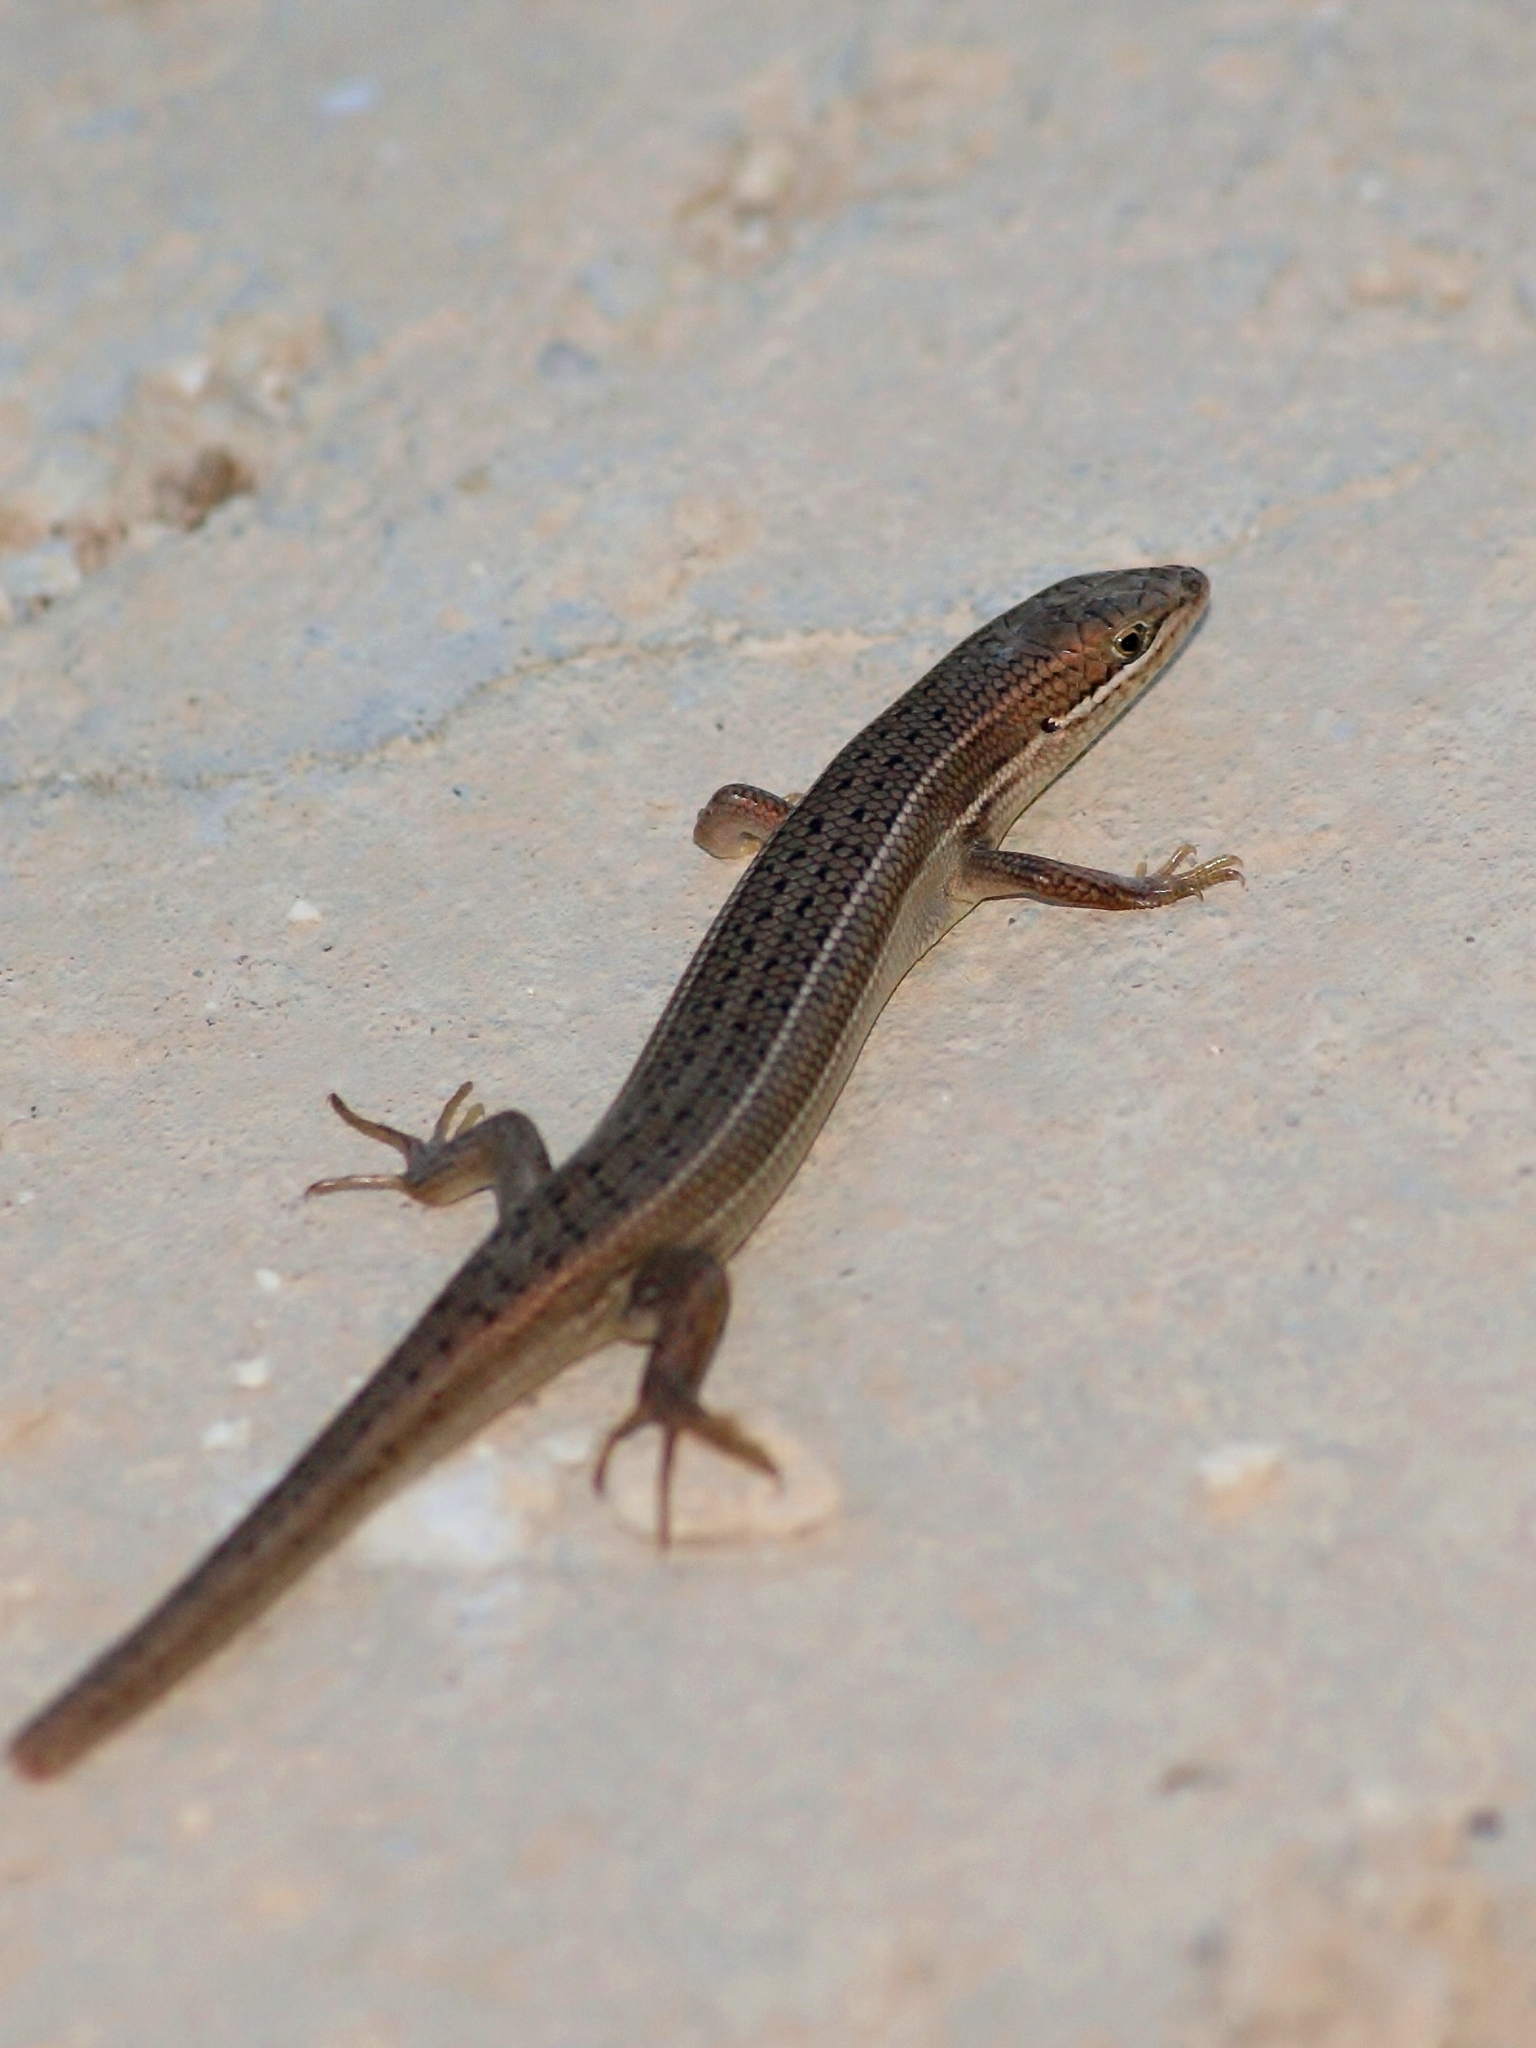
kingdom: Animalia
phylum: Chordata
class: Squamata
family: Scincidae
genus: Heremites
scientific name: Heremites vittatus
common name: Bridled mabuya
